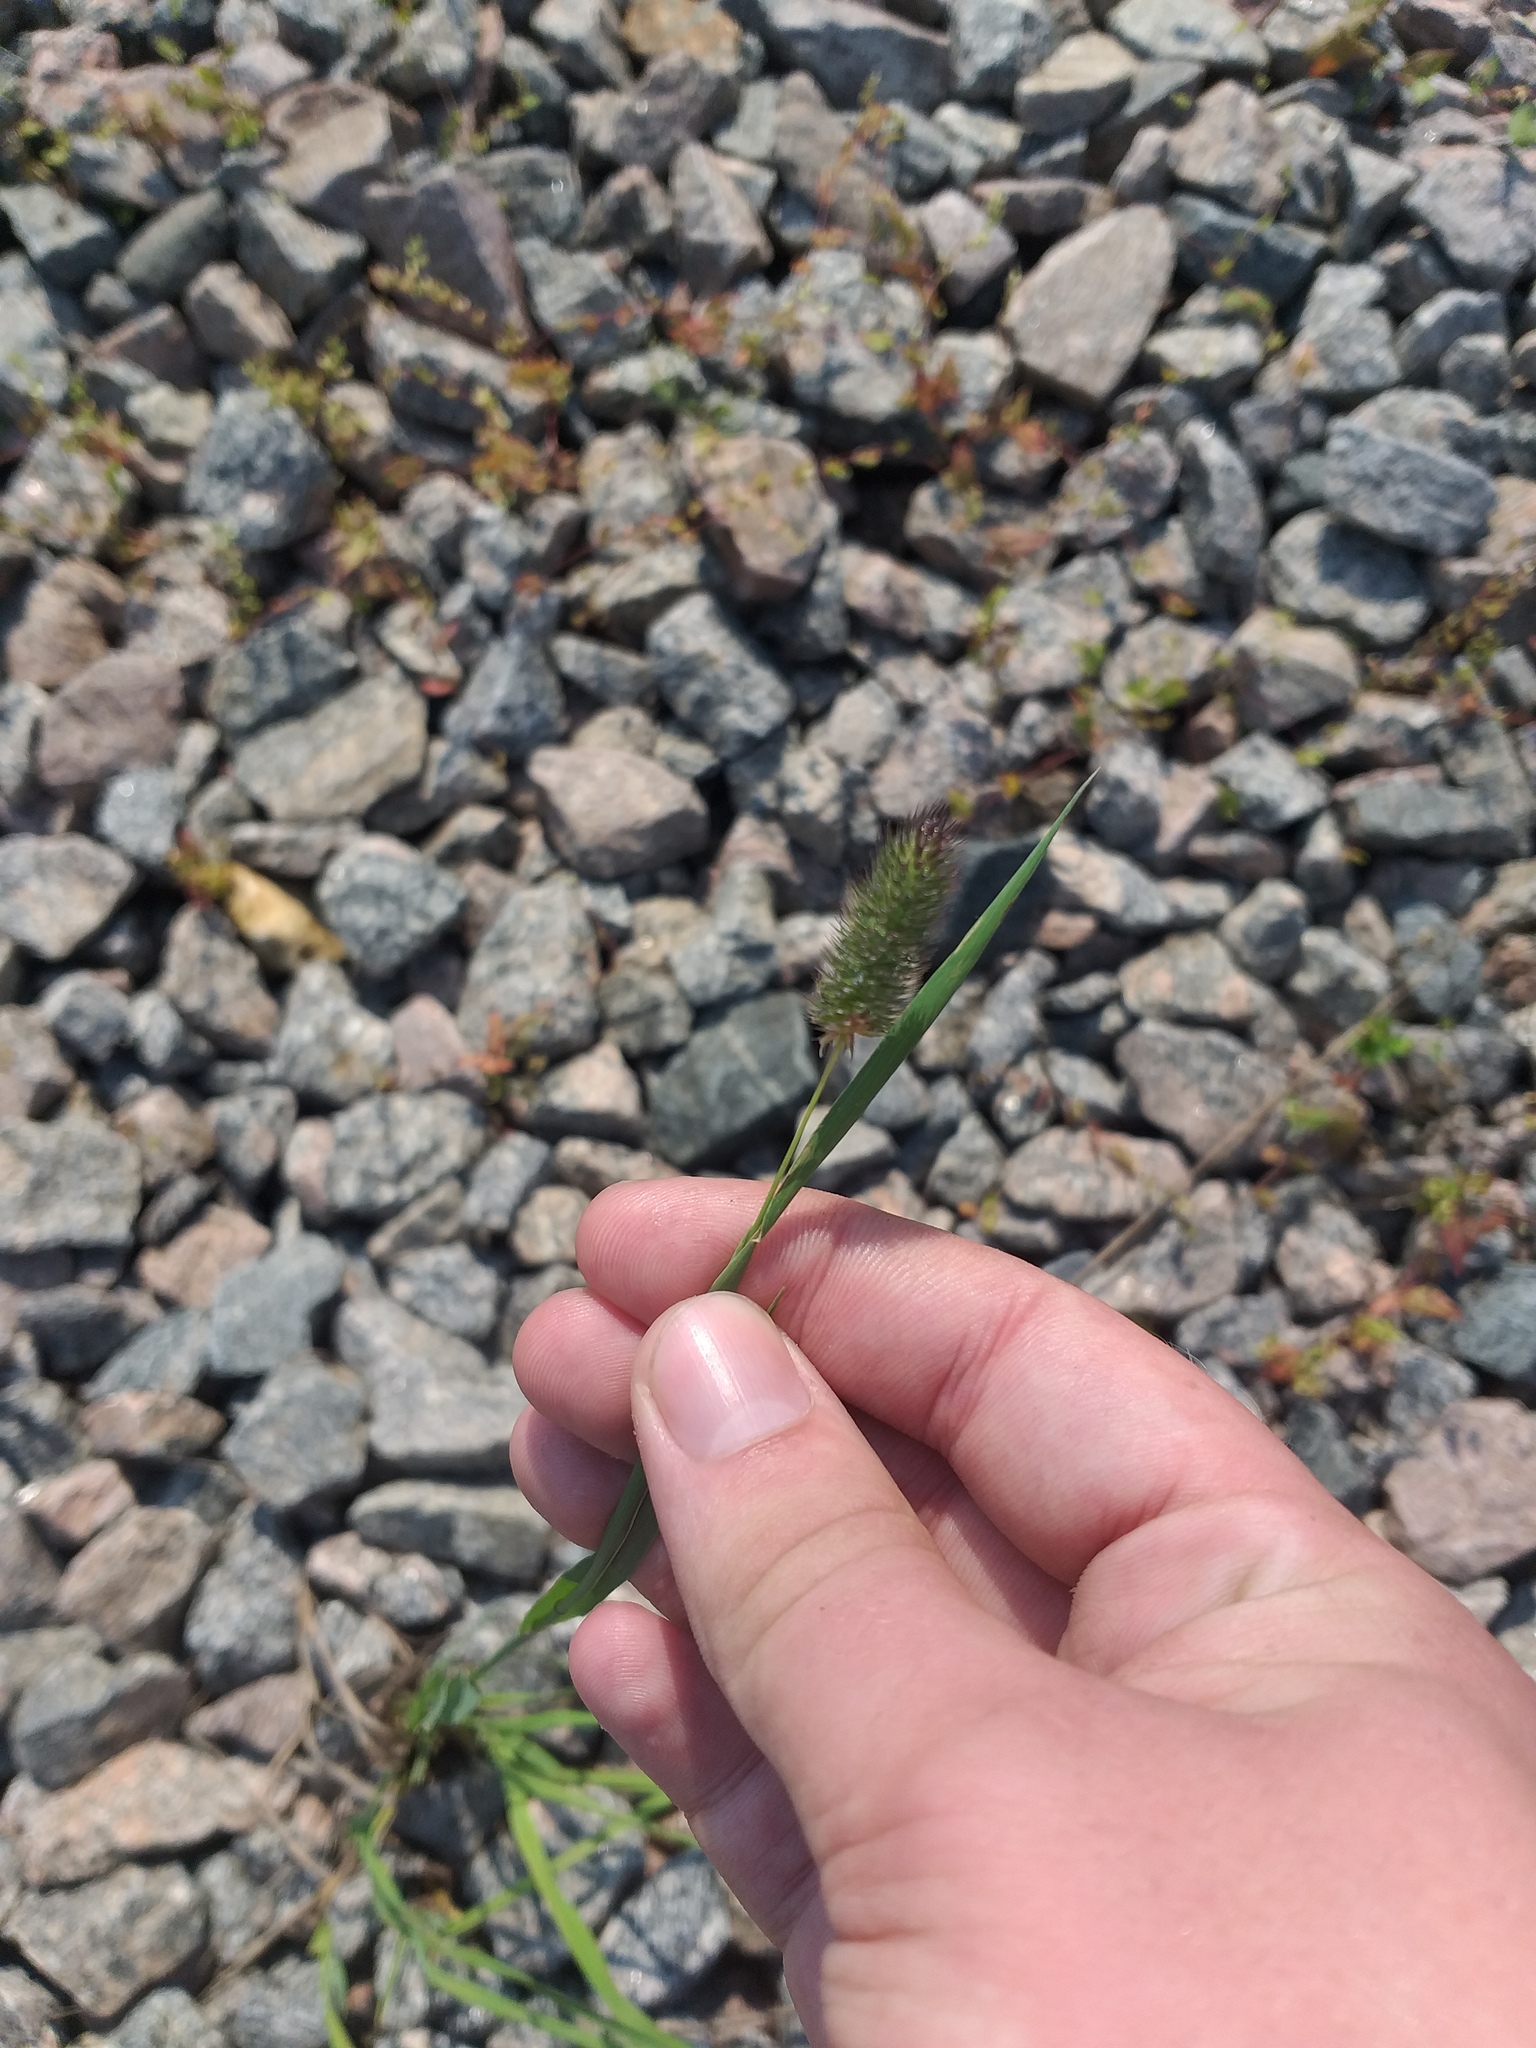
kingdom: Plantae
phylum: Tracheophyta
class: Liliopsida
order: Poales
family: Poaceae
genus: Phleum
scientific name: Phleum pratense
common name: Timothy grass
